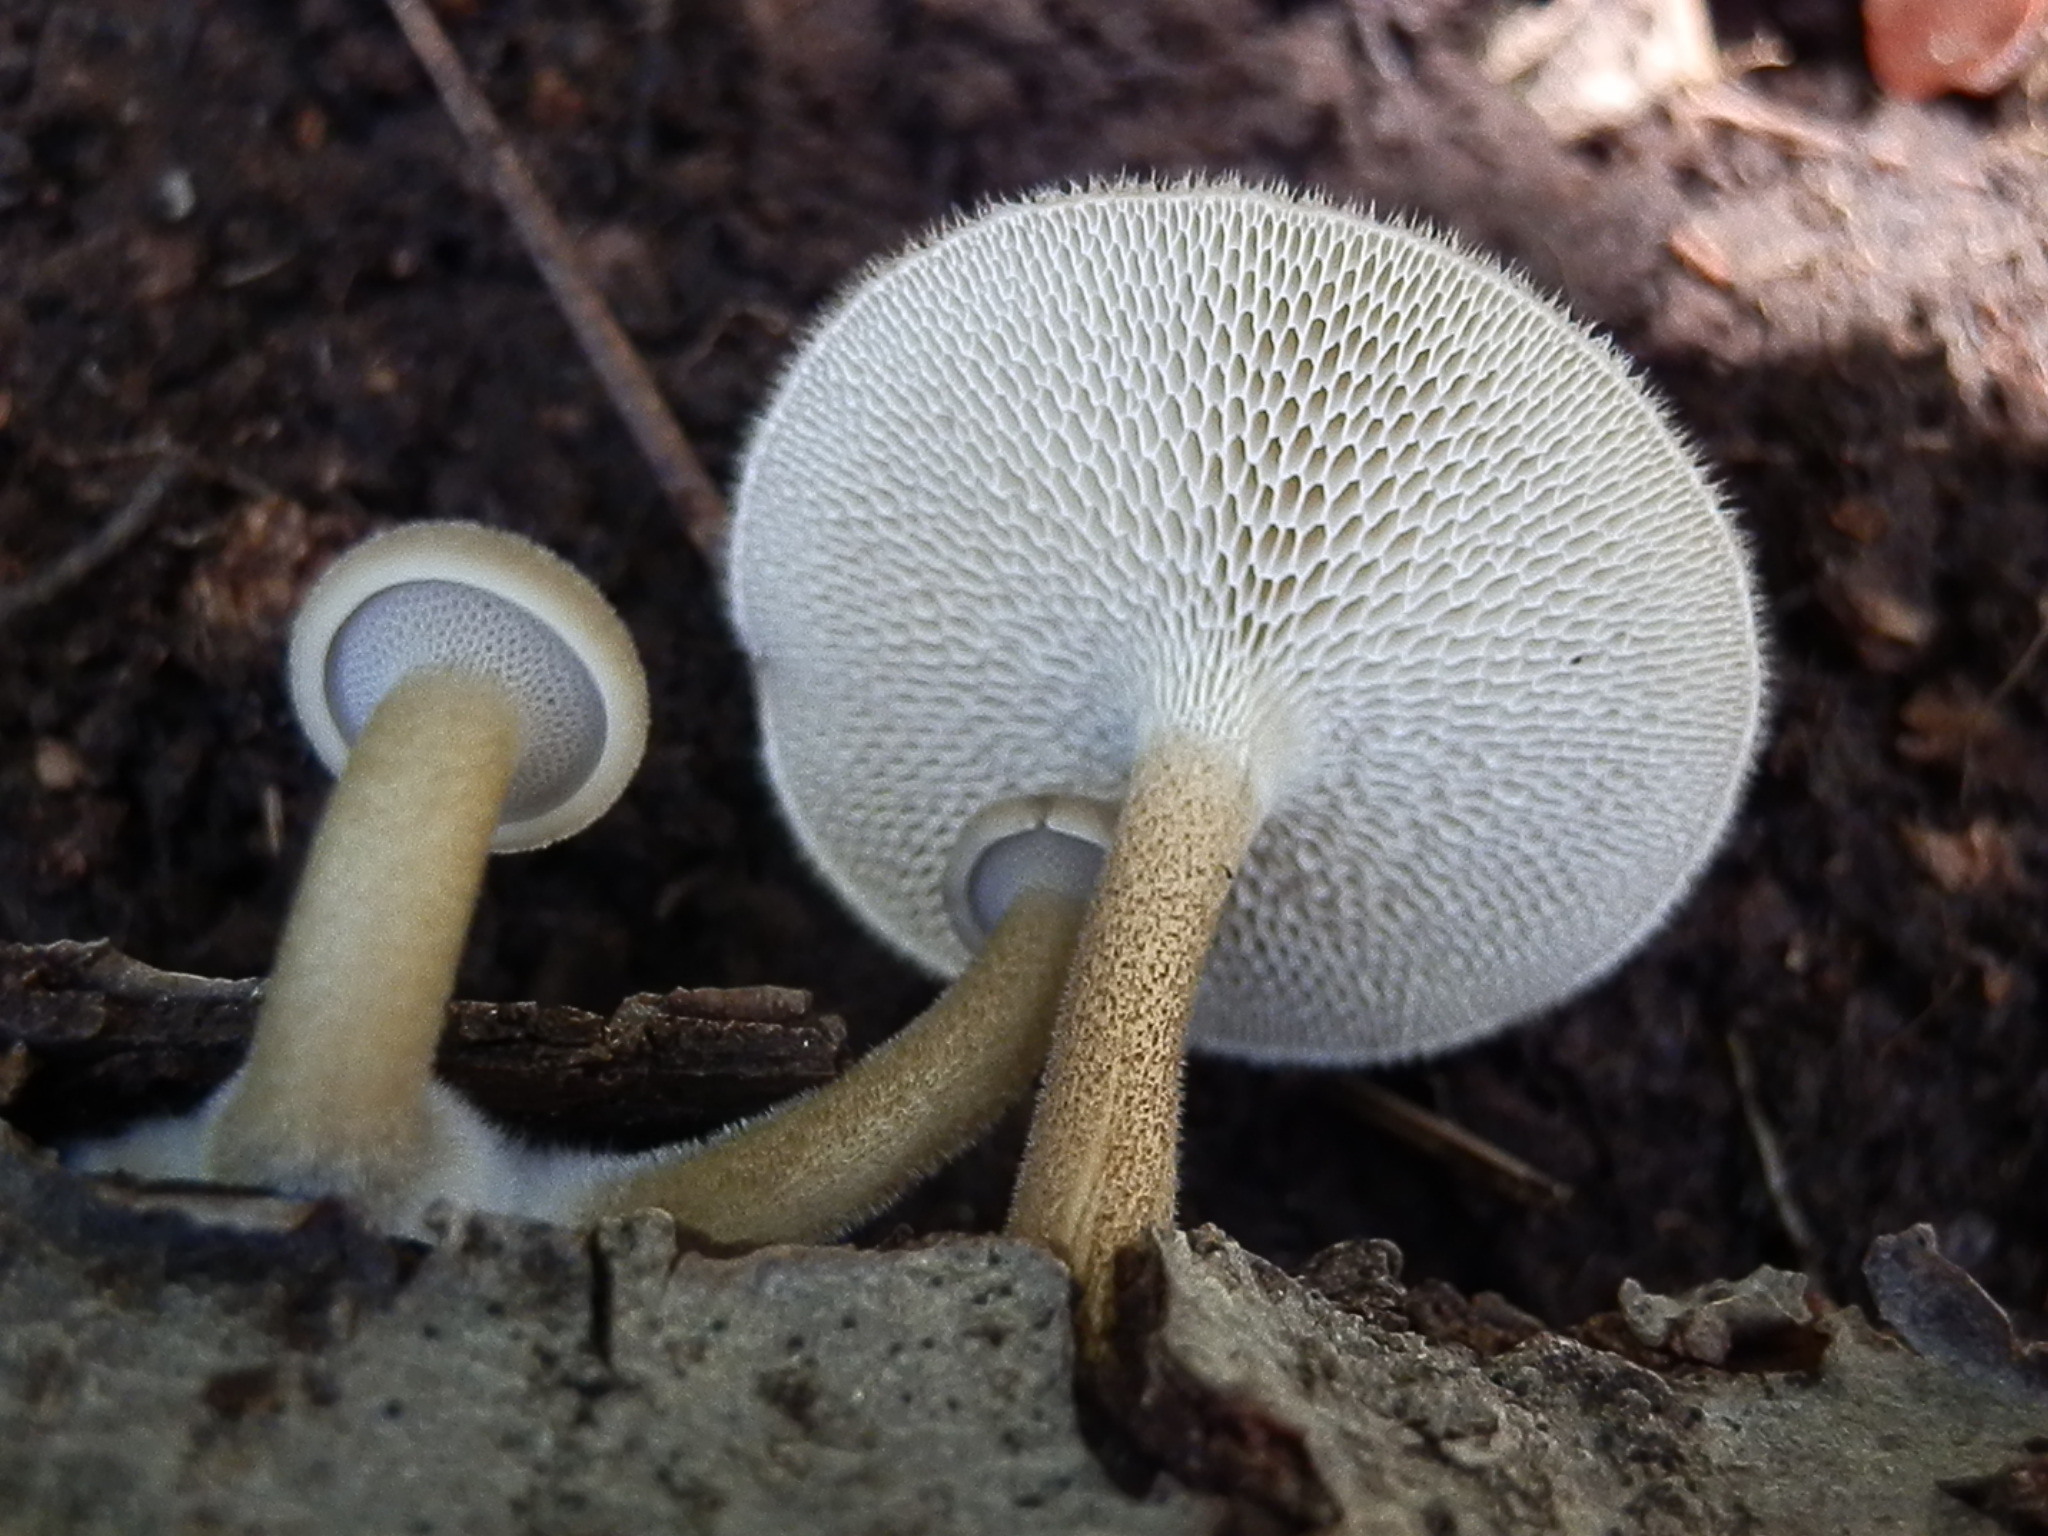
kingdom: Fungi
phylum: Basidiomycota
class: Agaricomycetes
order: Polyporales
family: Polyporaceae
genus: Lentinus
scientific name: Lentinus arcularius
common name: Spring polypore
